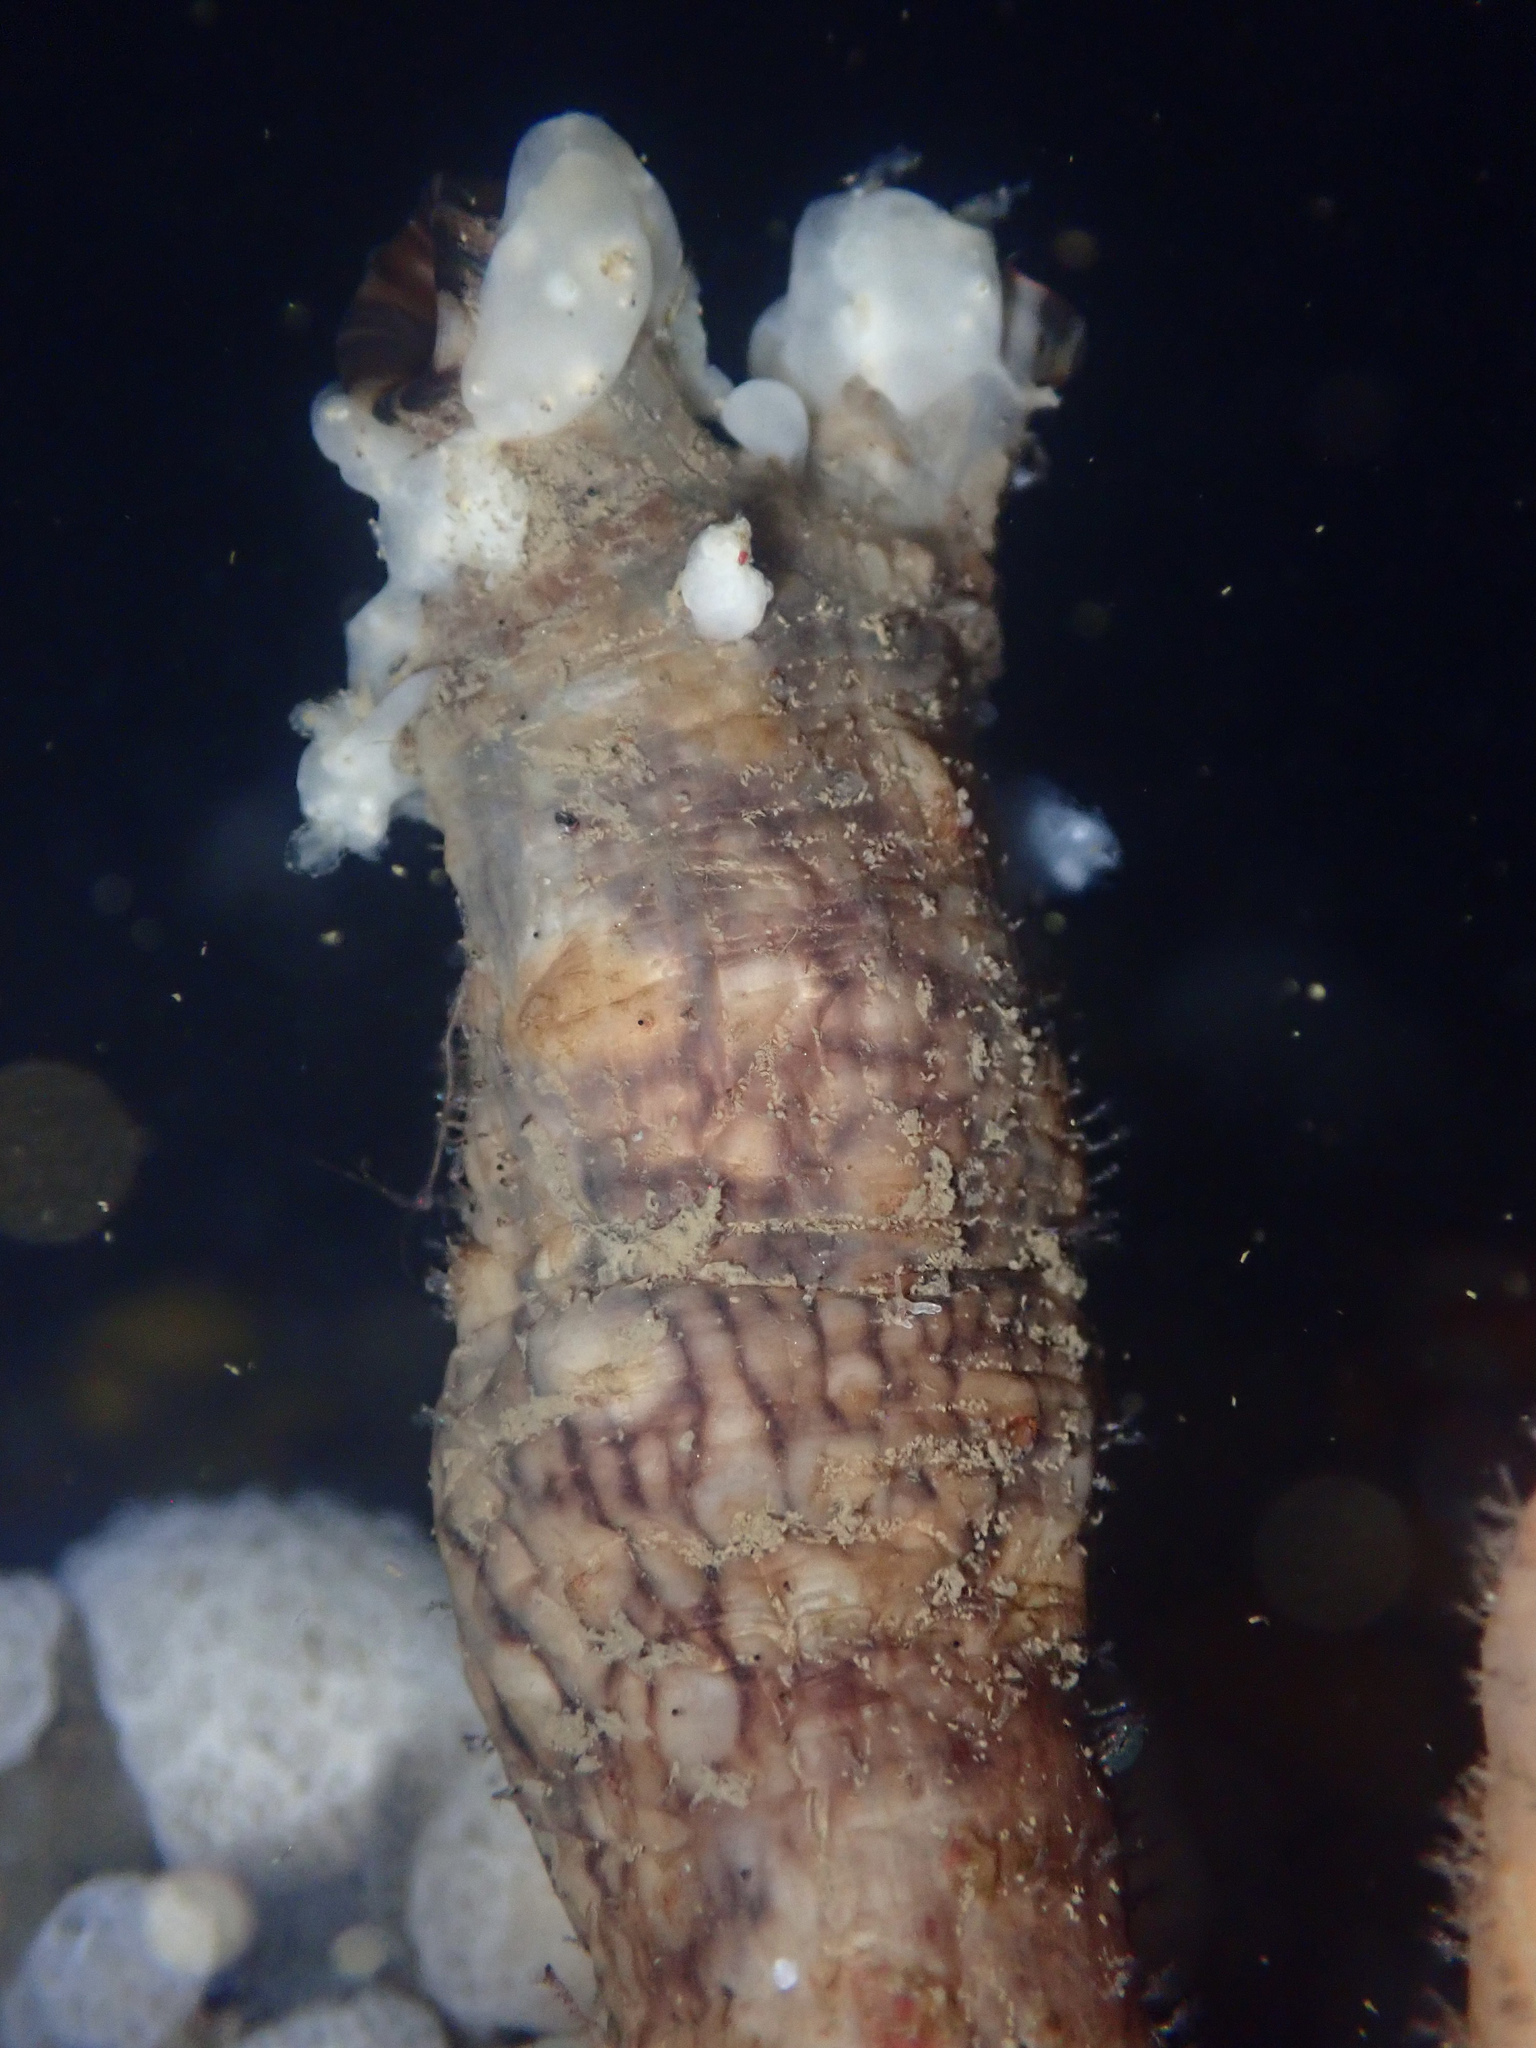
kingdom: Animalia
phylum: Chordata
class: Ascidiacea
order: Stolidobranchia
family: Styelidae
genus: Styela
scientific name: Styela clava
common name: Leathery sea squirt
